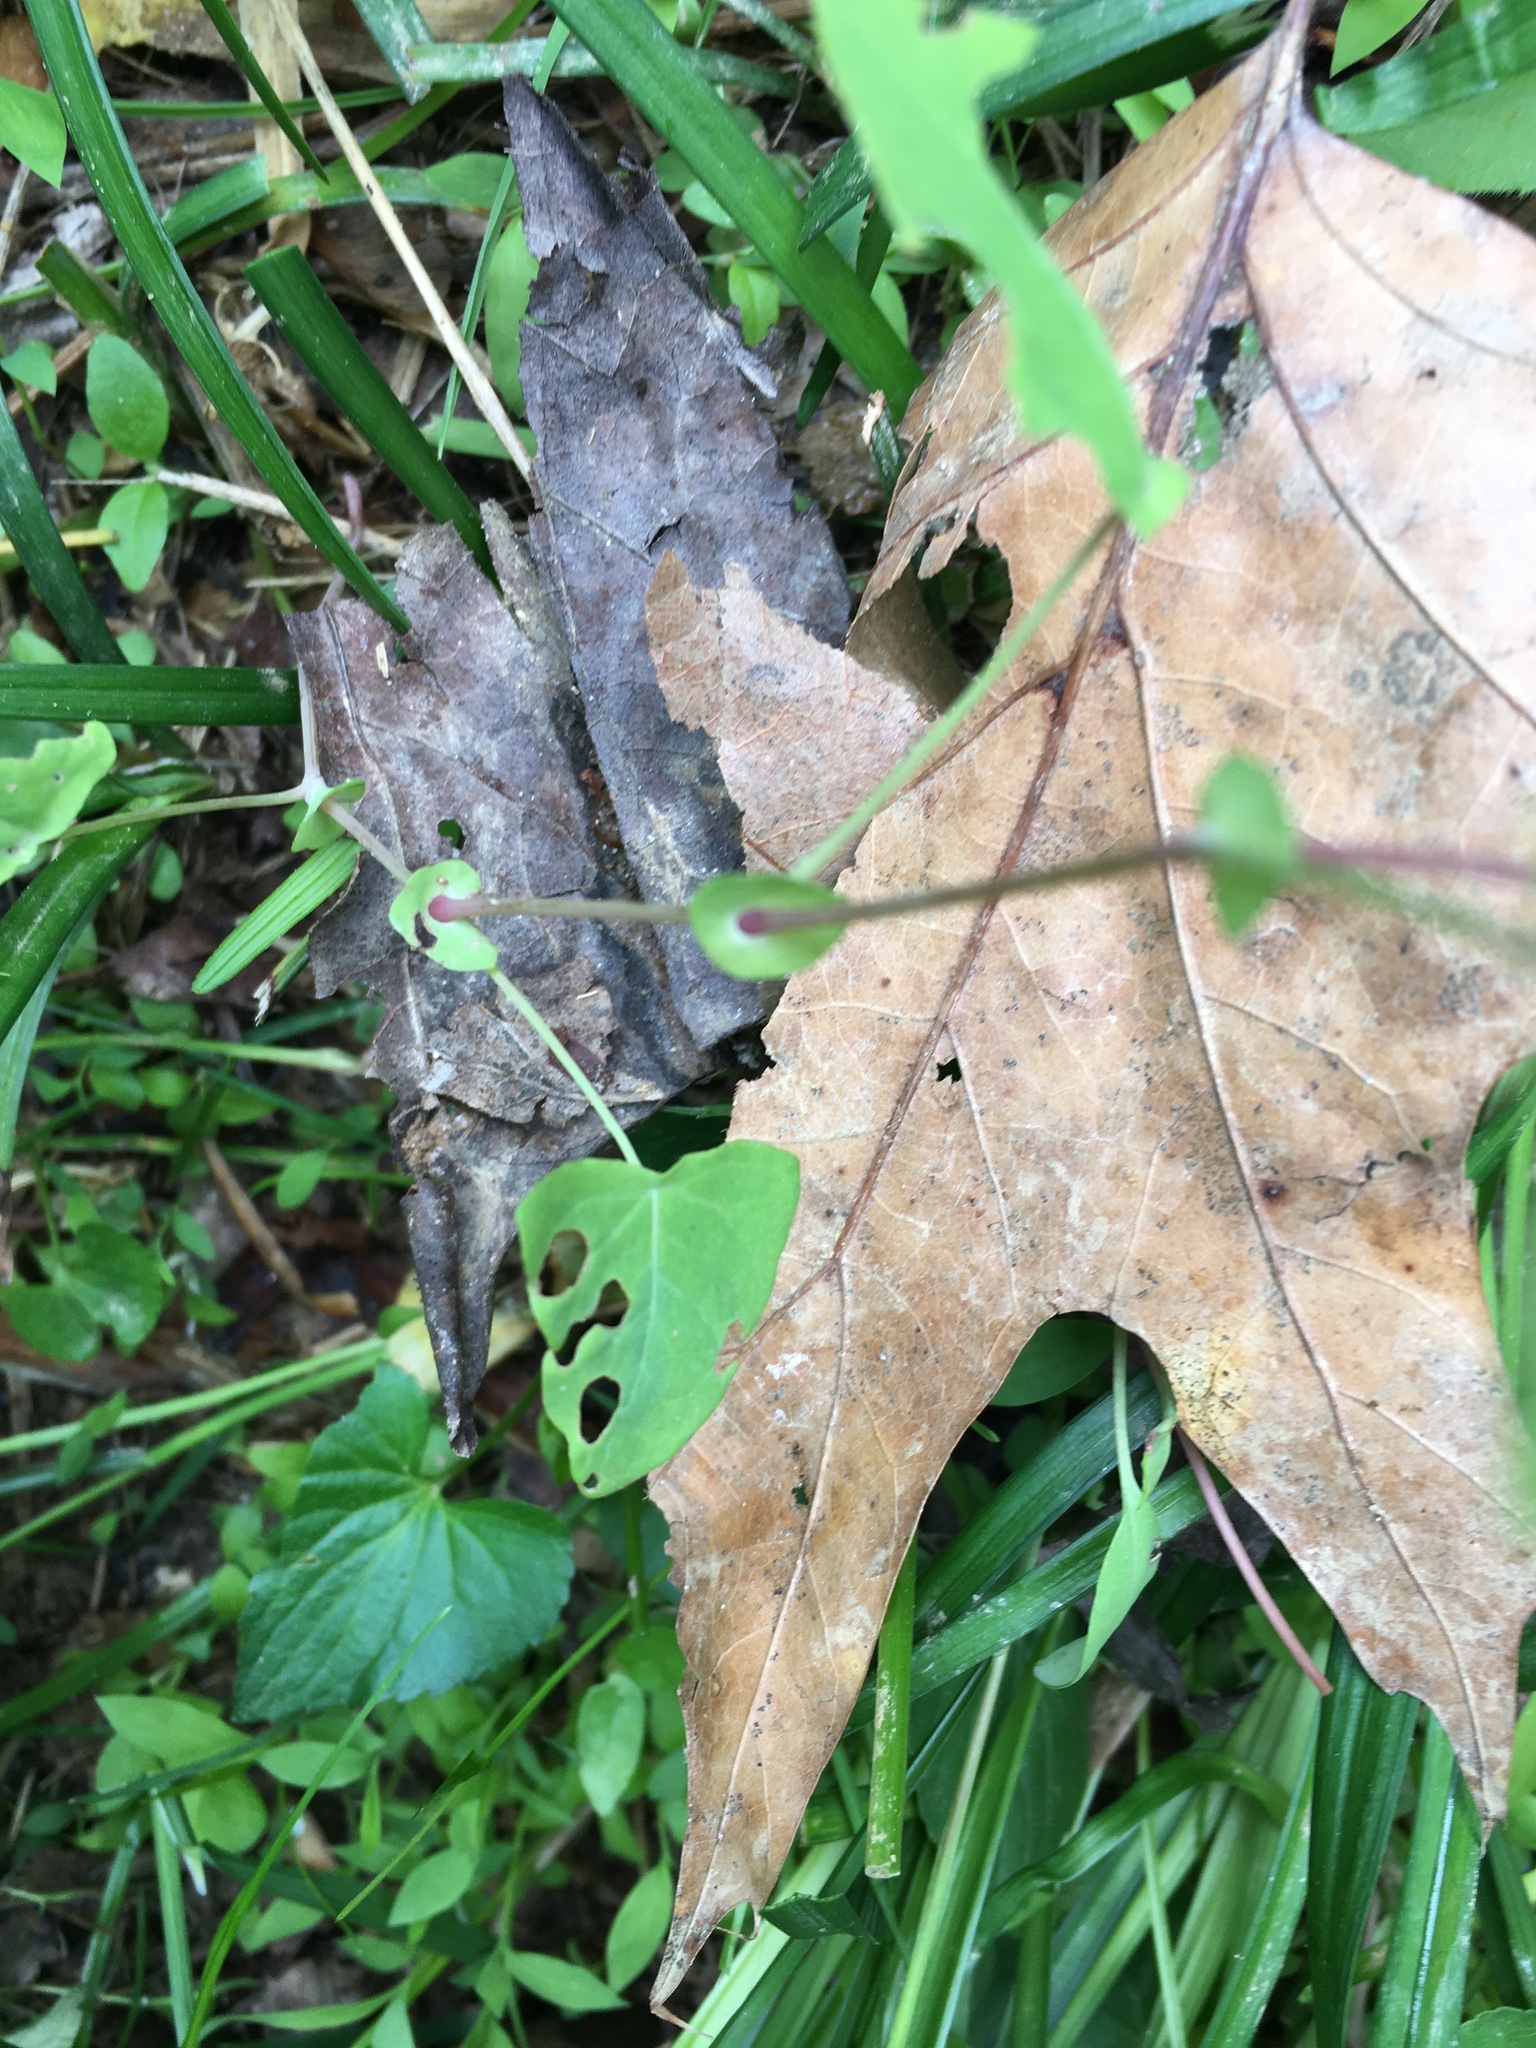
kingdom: Plantae
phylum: Tracheophyta
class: Magnoliopsida
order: Caryophyllales
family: Polygonaceae
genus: Persicaria
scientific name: Persicaria perfoliata
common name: Asiatic tearthumb
